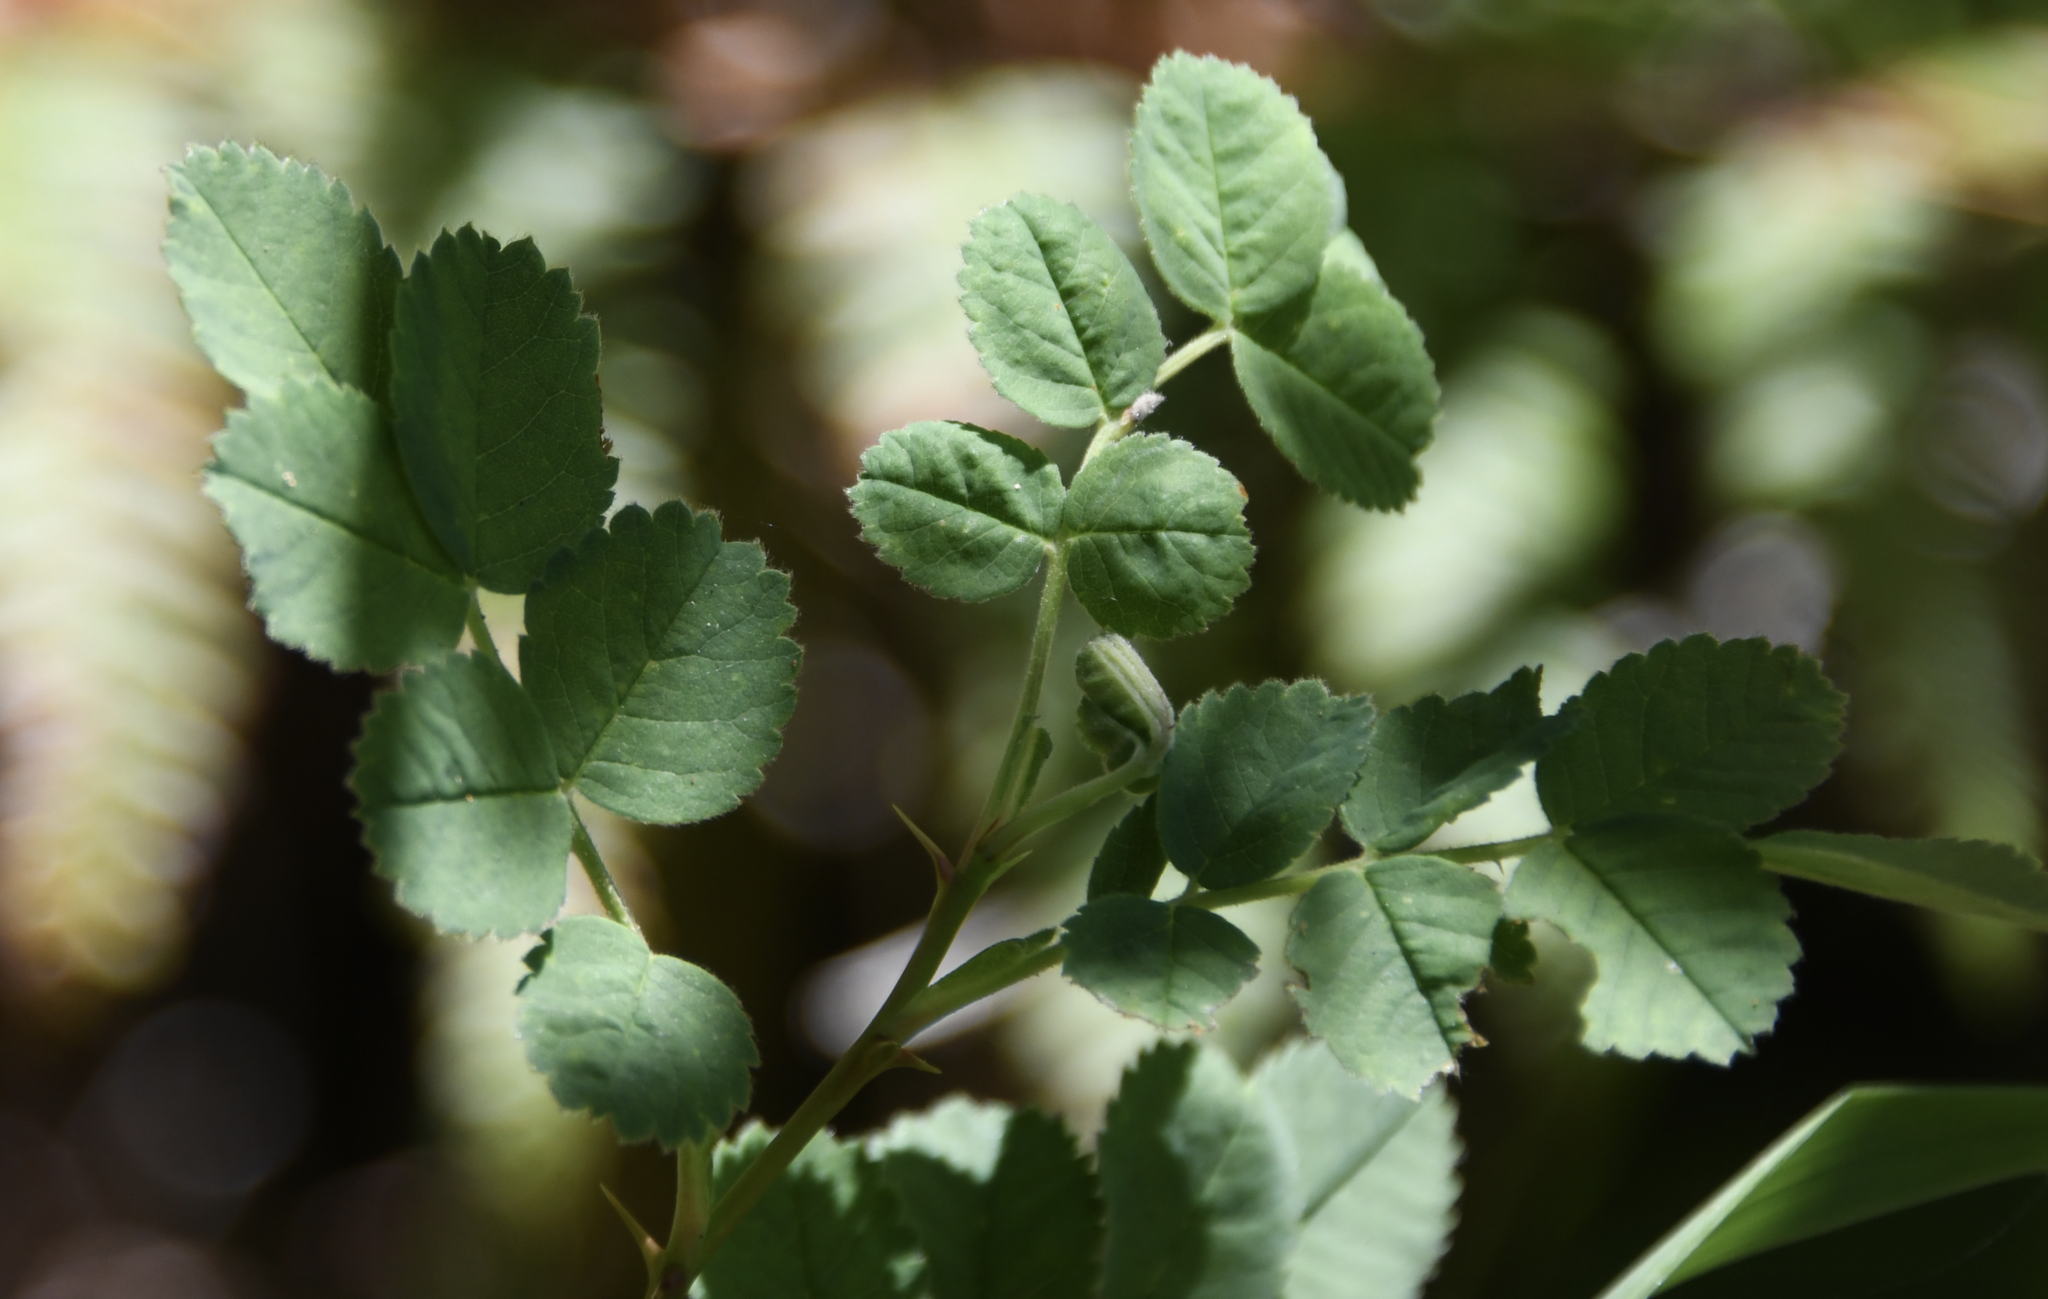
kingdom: Plantae
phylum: Tracheophyta
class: Magnoliopsida
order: Rosales
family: Rosaceae
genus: Rosa
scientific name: Rosa californica
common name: California rose
